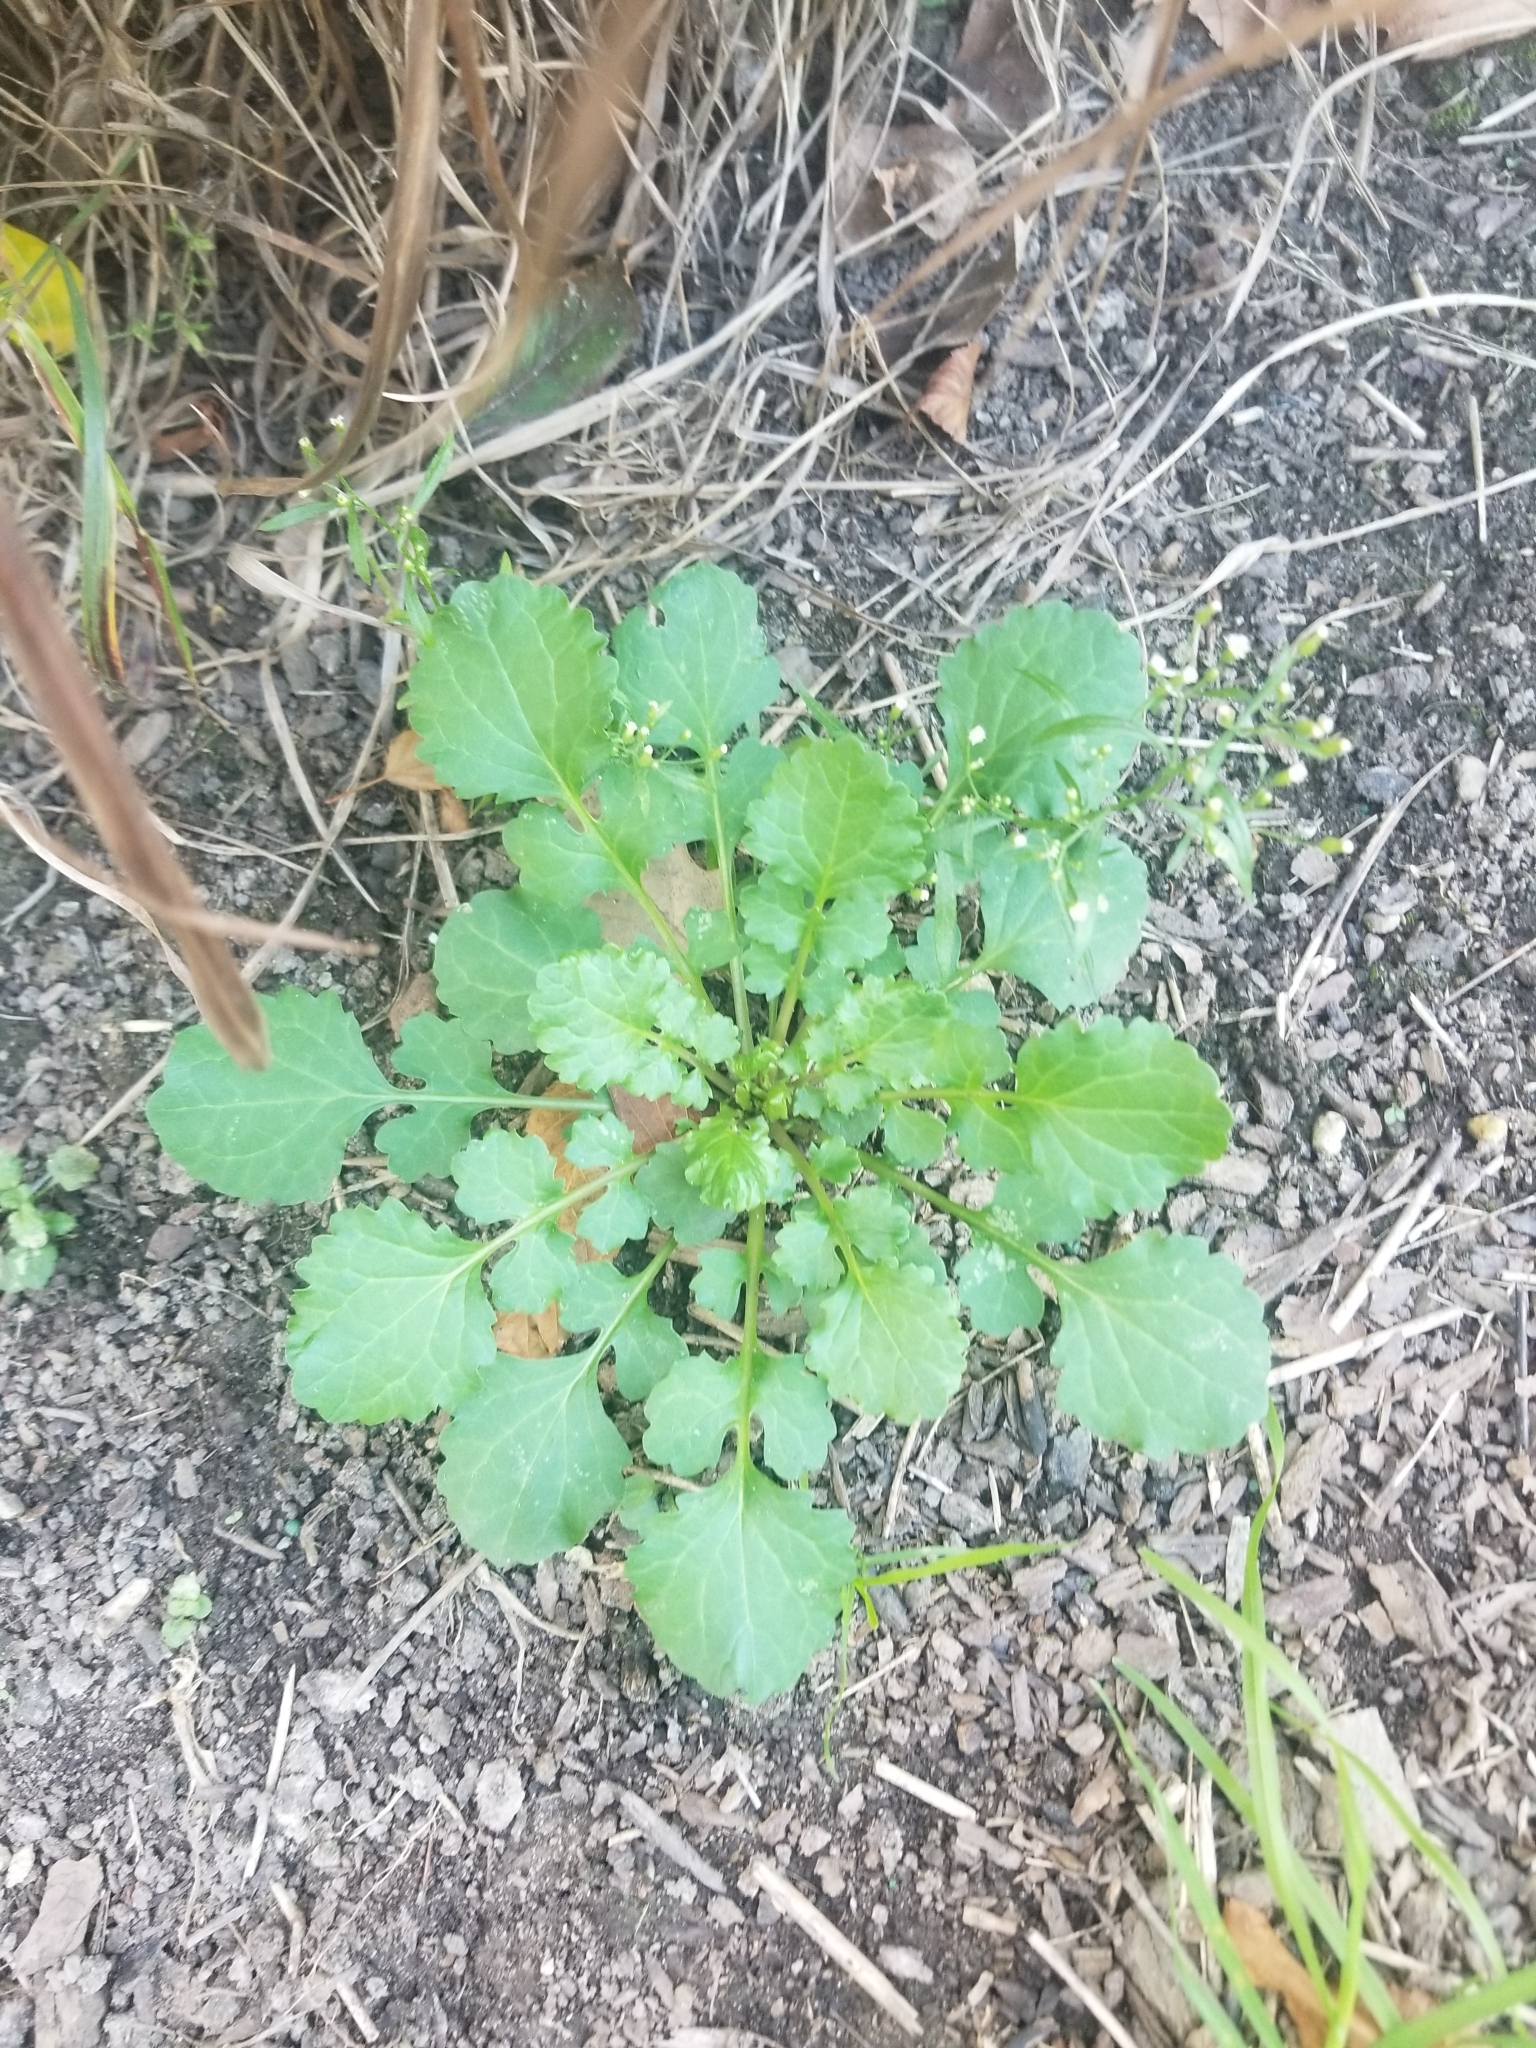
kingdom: Plantae
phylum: Tracheophyta
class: Magnoliopsida
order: Asterales
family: Asteraceae
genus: Packera
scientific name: Packera glabella
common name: Butterweed
